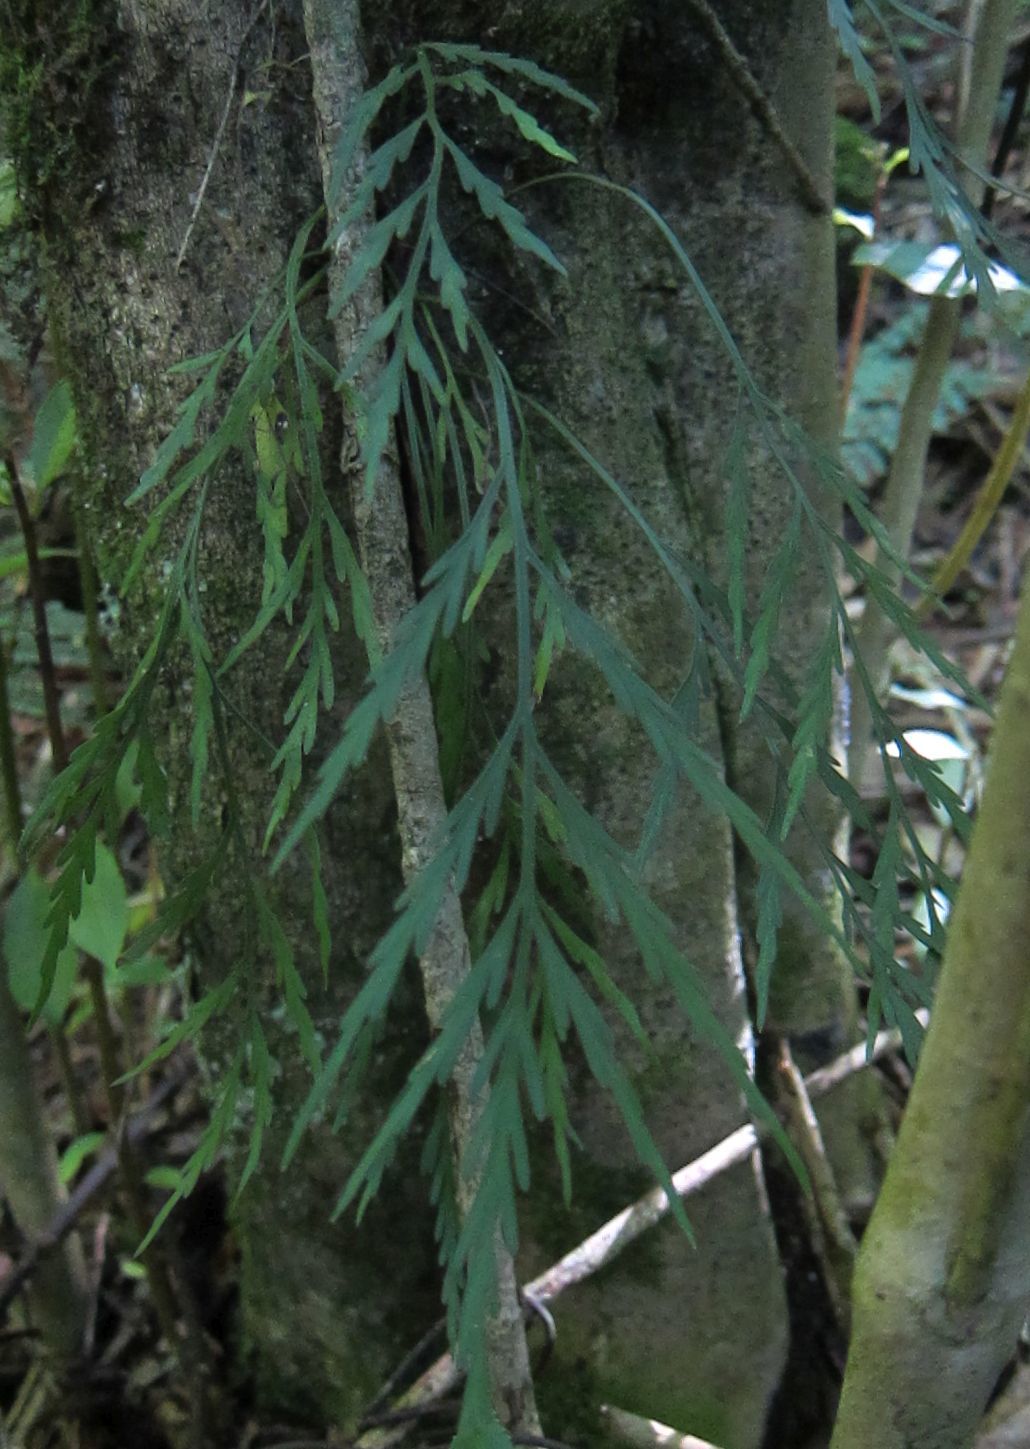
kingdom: Plantae
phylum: Tracheophyta
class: Polypodiopsida
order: Polypodiales
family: Aspleniaceae
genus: Asplenium
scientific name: Asplenium flaccidum
